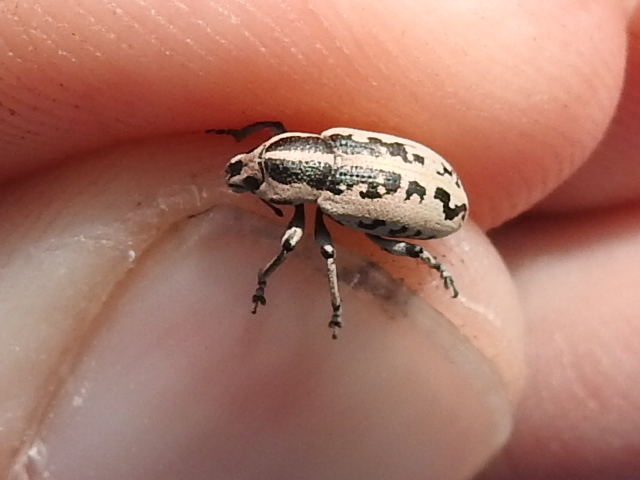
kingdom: Animalia
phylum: Arthropoda
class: Insecta
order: Coleoptera
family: Curculionidae
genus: Eudiagogus
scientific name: Eudiagogus rosenschoeldi
